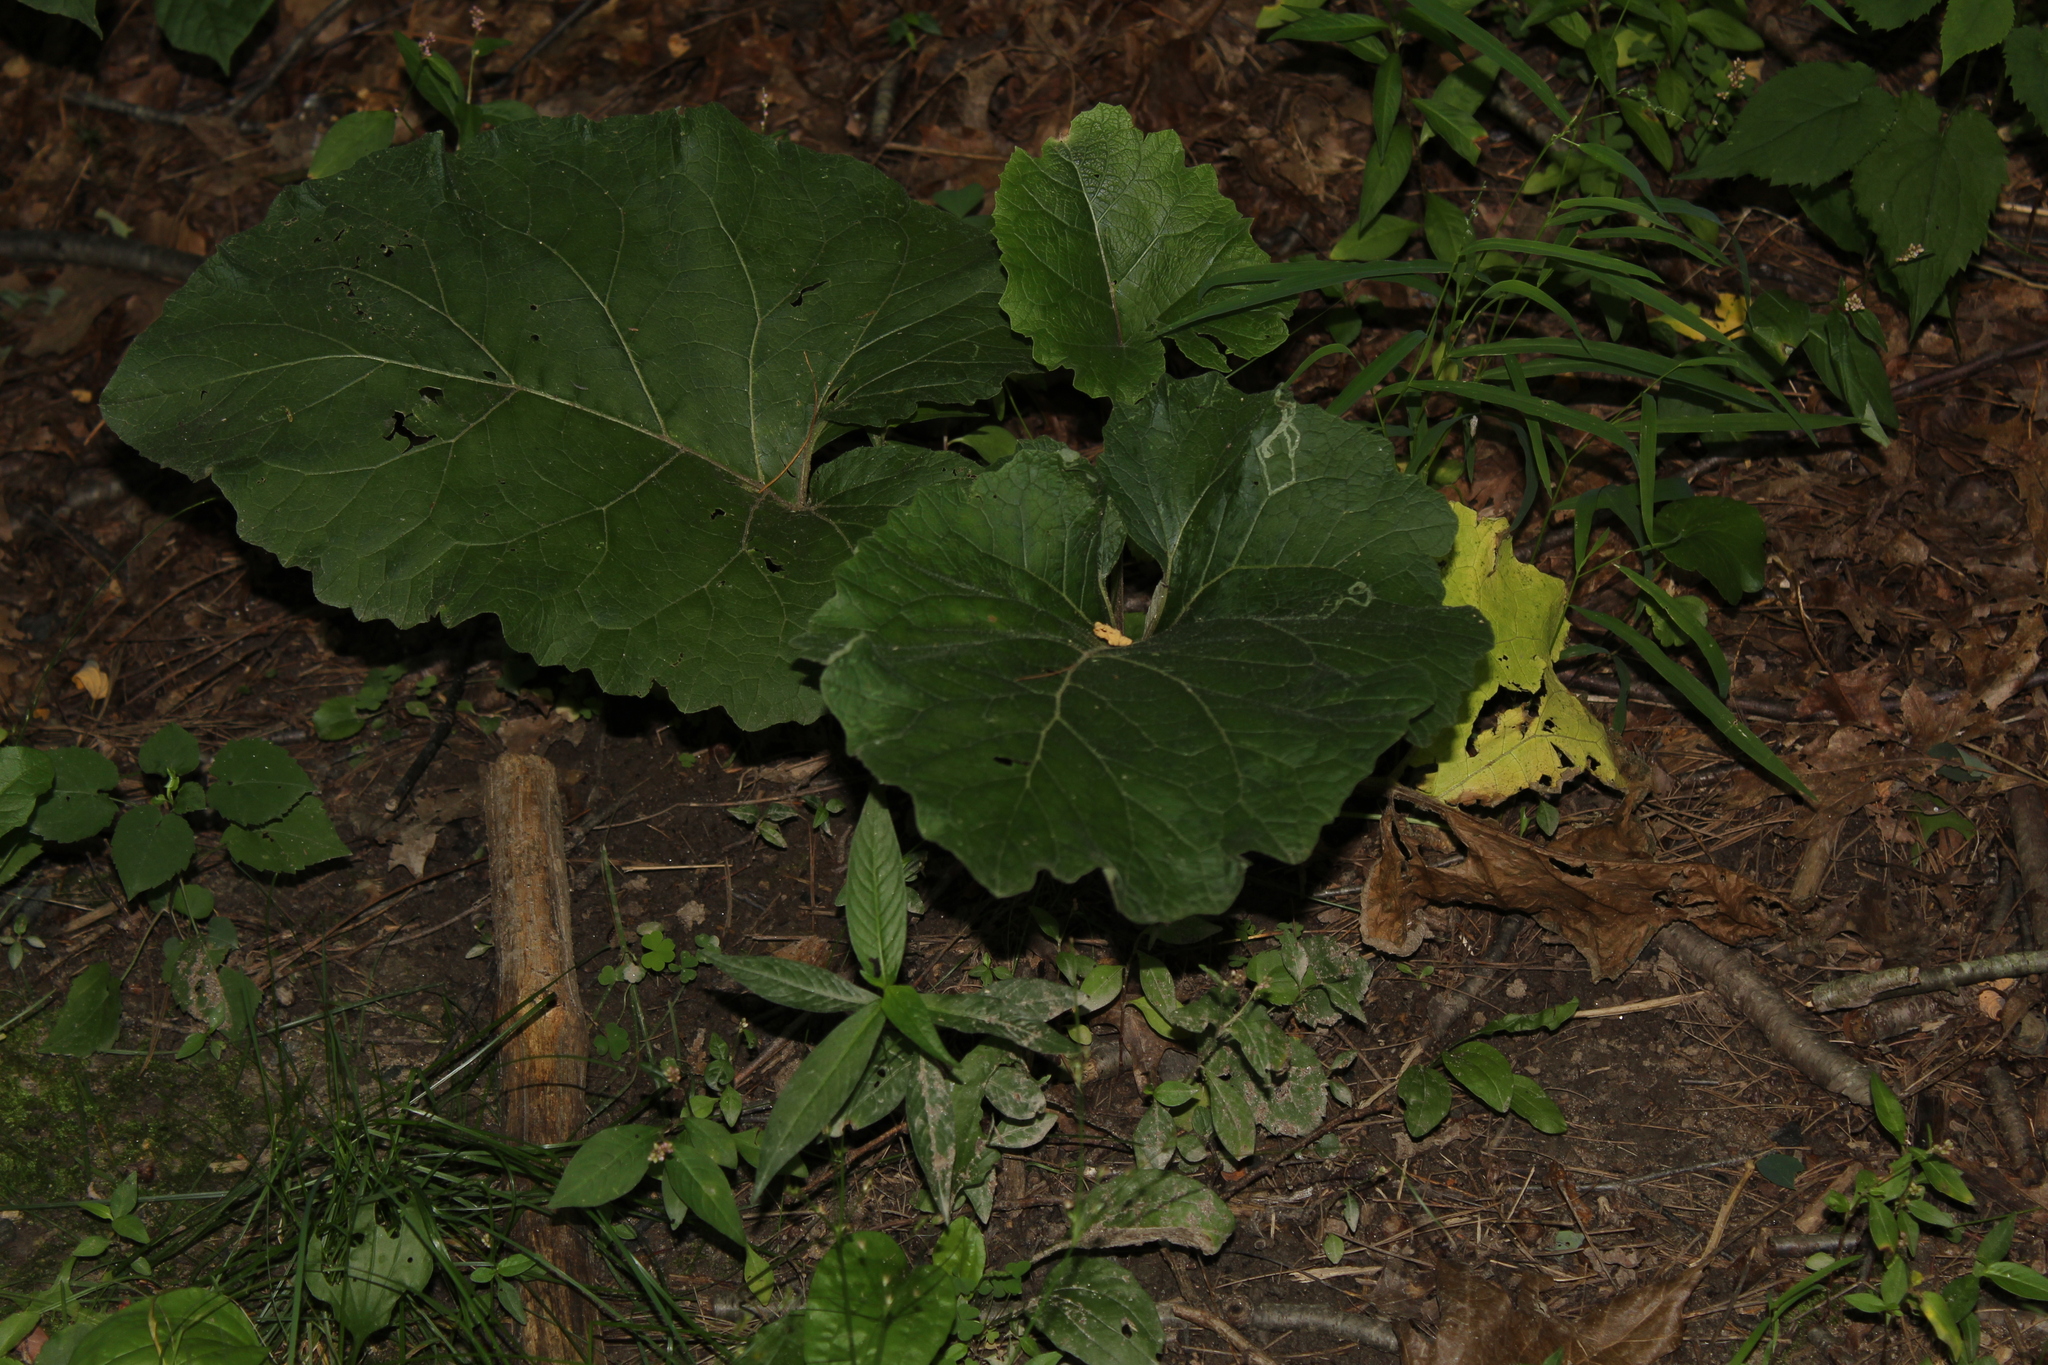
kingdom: Animalia
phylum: Arthropoda
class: Insecta
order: Diptera
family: Agromyzidae
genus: Liriomyza
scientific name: Liriomyza arctii
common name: Burdock leafminer
